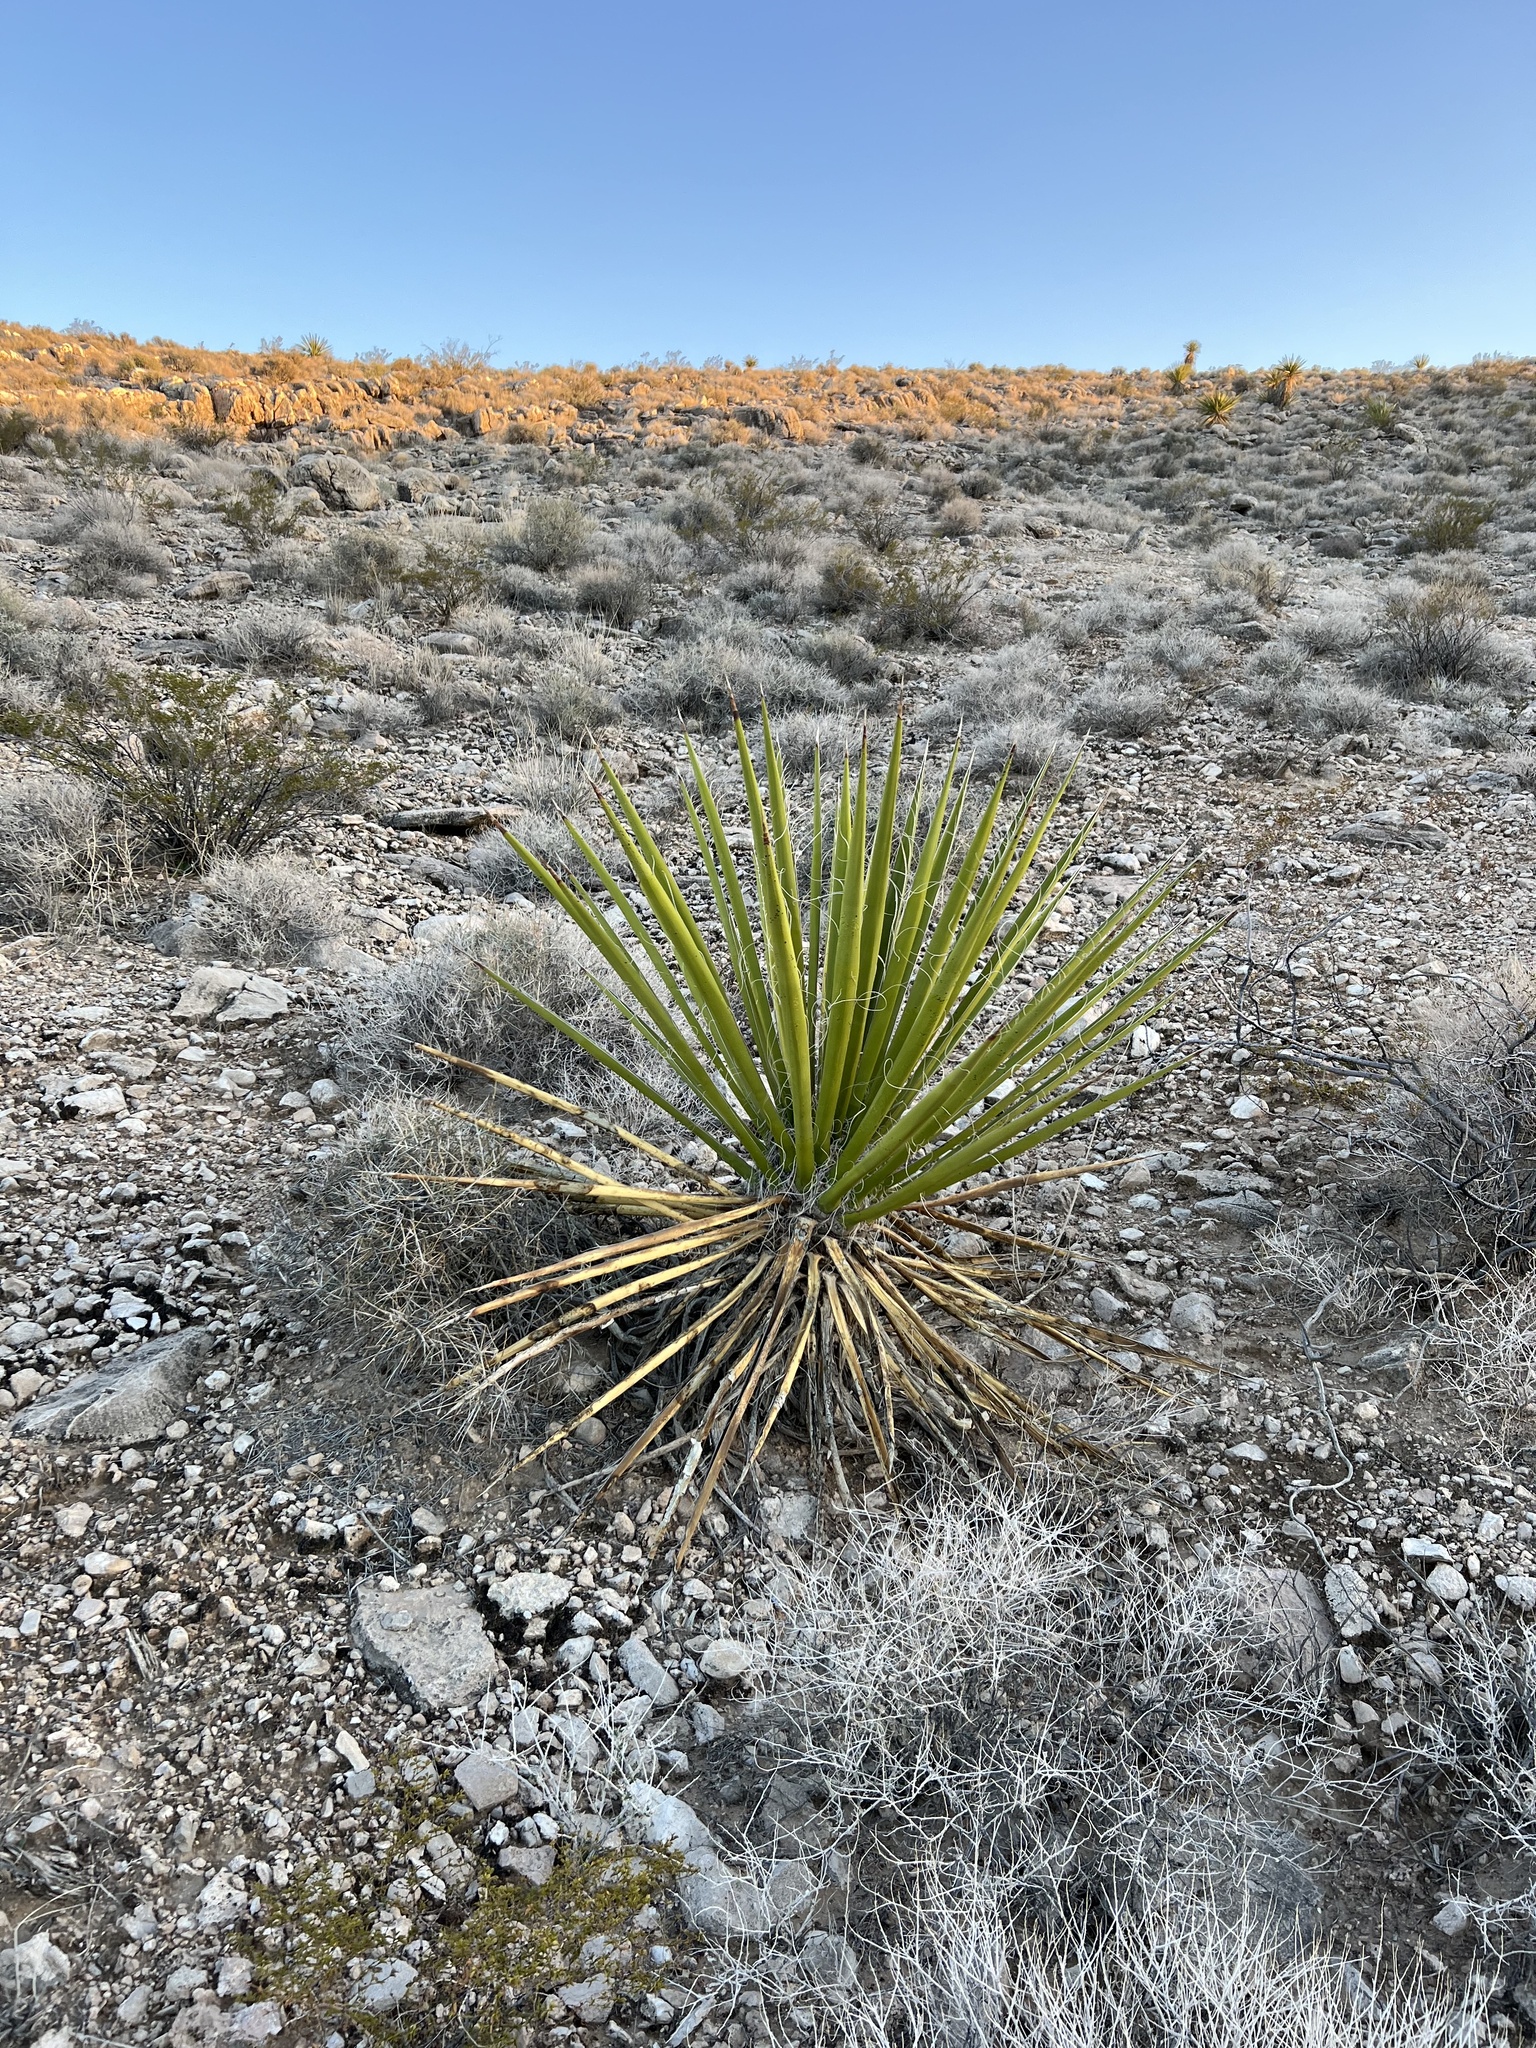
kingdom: Plantae
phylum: Tracheophyta
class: Liliopsida
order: Asparagales
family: Asparagaceae
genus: Yucca
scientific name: Yucca schidigera
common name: Mojave yucca
